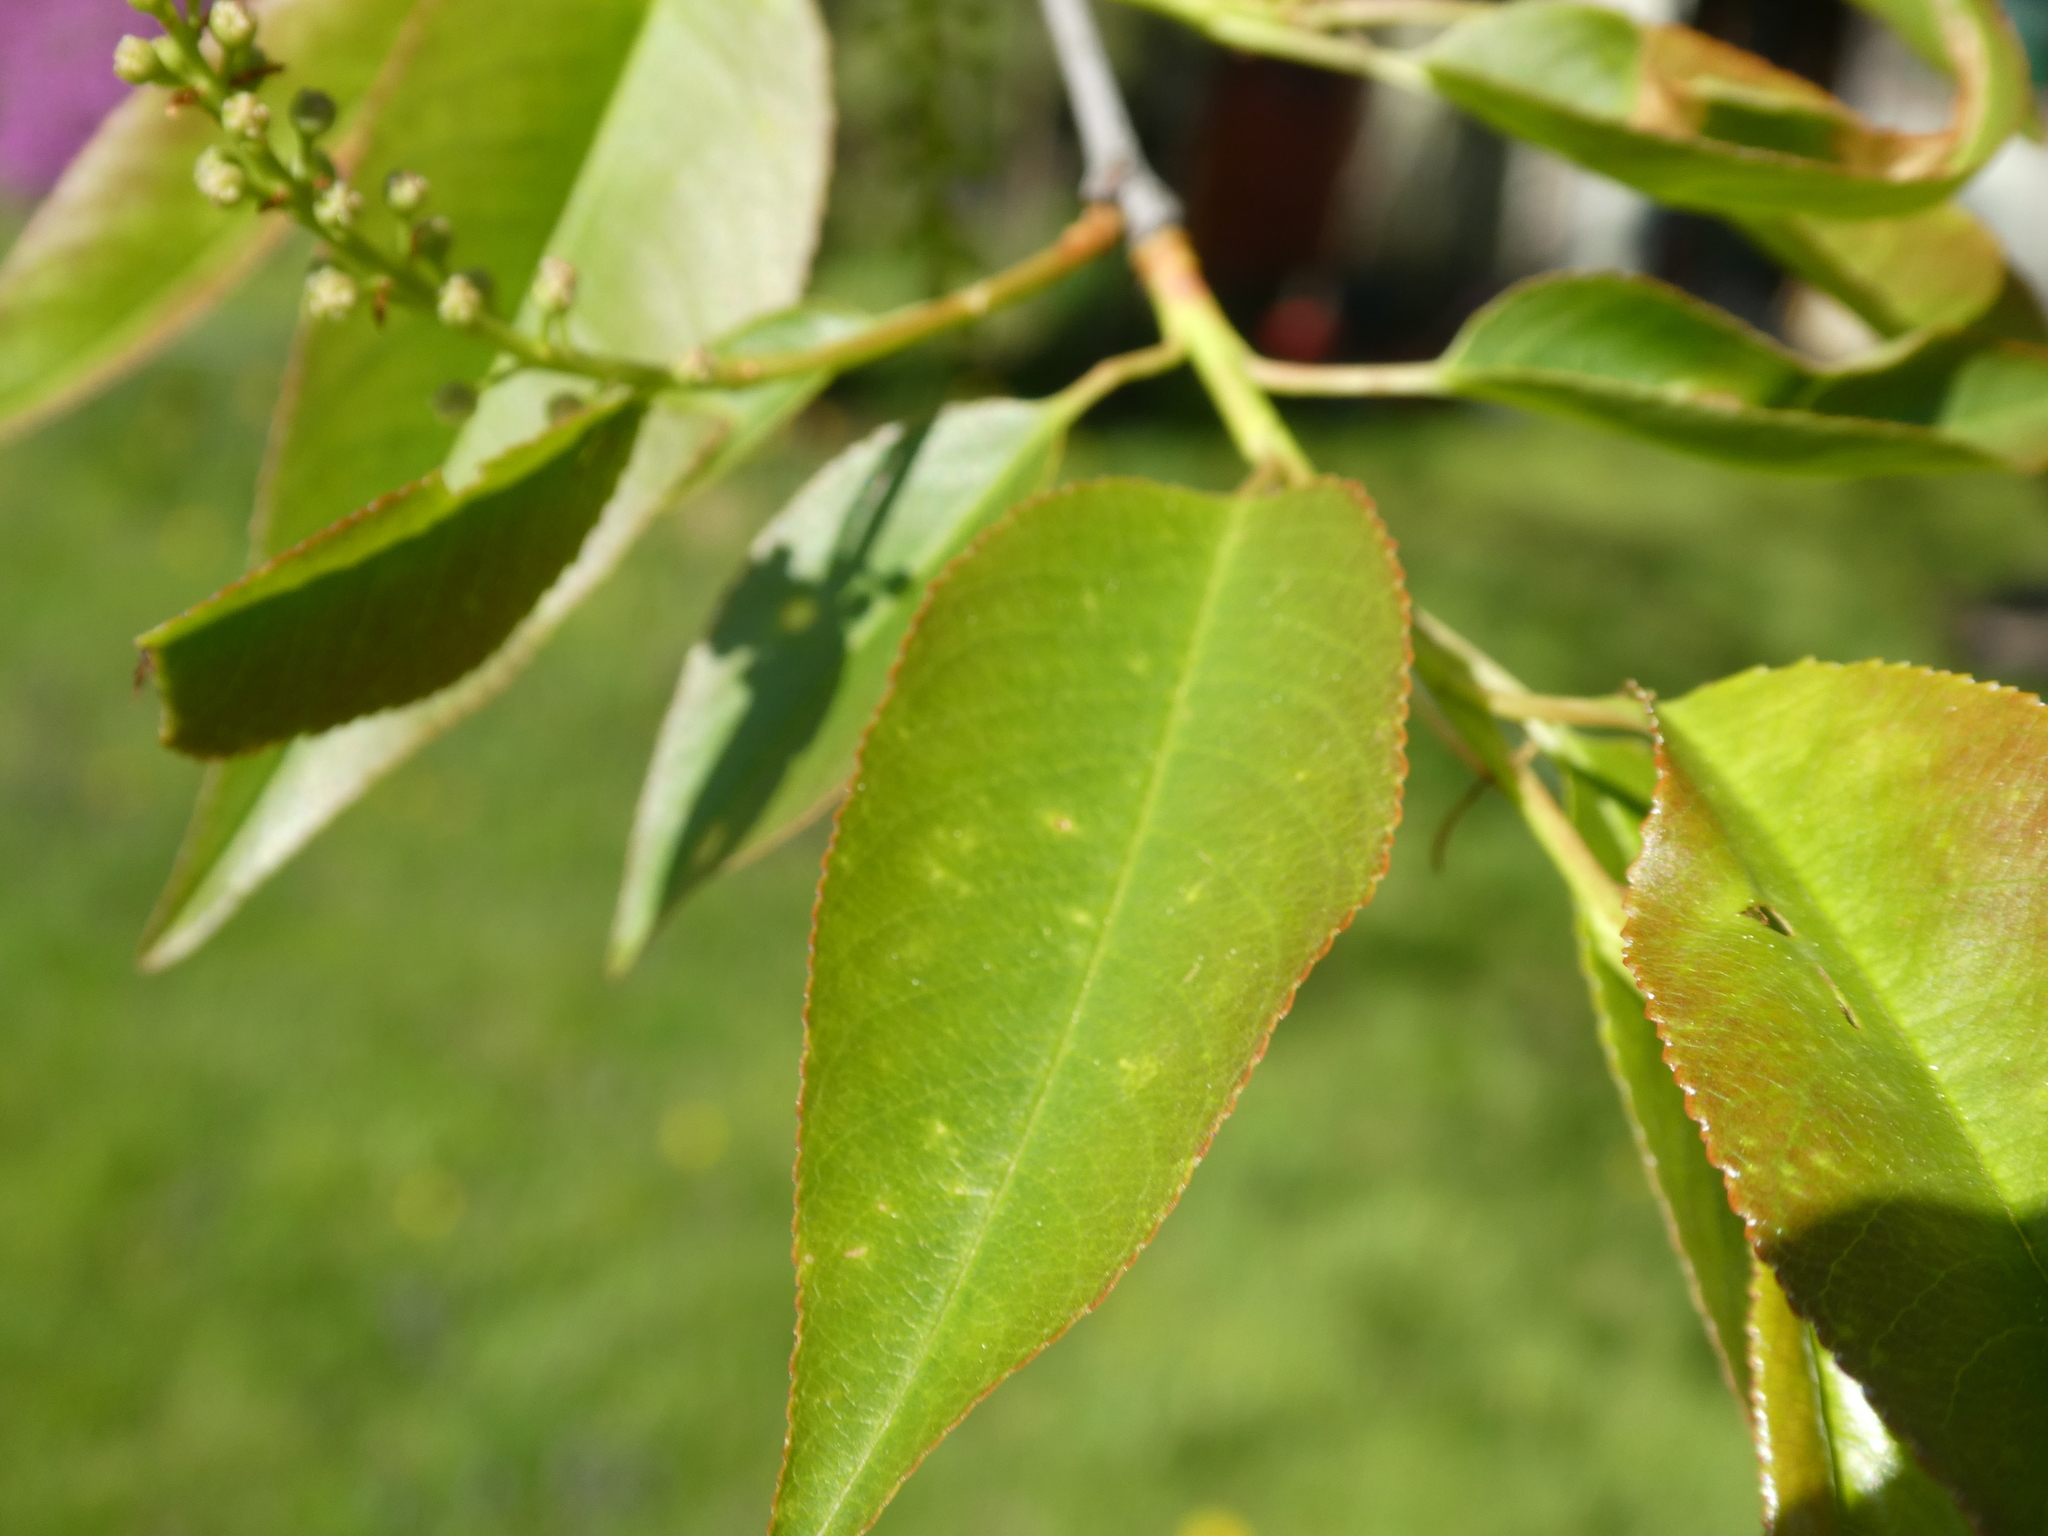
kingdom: Plantae
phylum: Tracheophyta
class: Magnoliopsida
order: Rosales
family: Rosaceae
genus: Prunus
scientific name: Prunus serotina
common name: Black cherry
